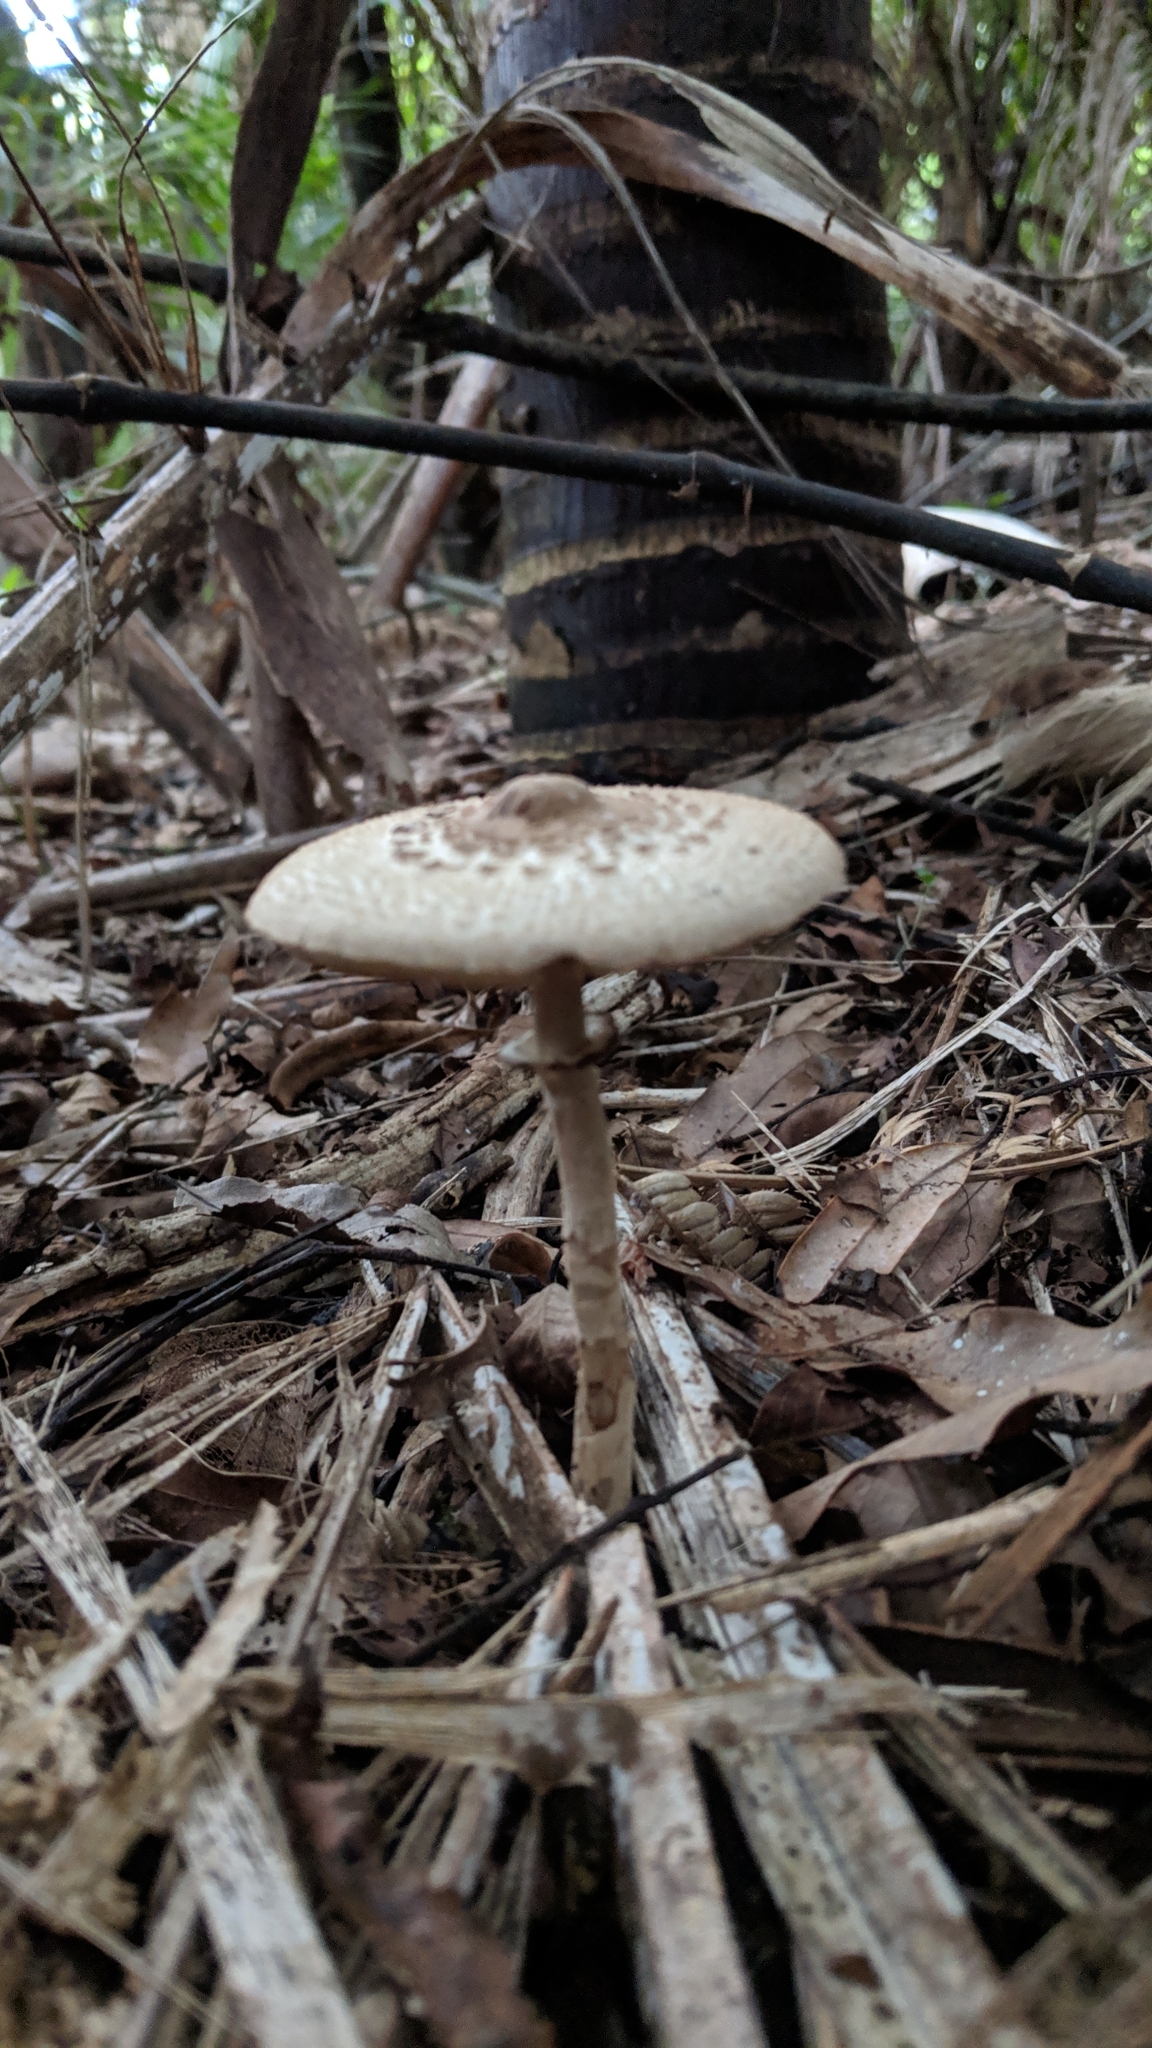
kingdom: Fungi
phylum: Basidiomycota
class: Agaricomycetes
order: Agaricales
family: Agaricaceae
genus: Macrolepiota
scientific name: Macrolepiota clelandii
